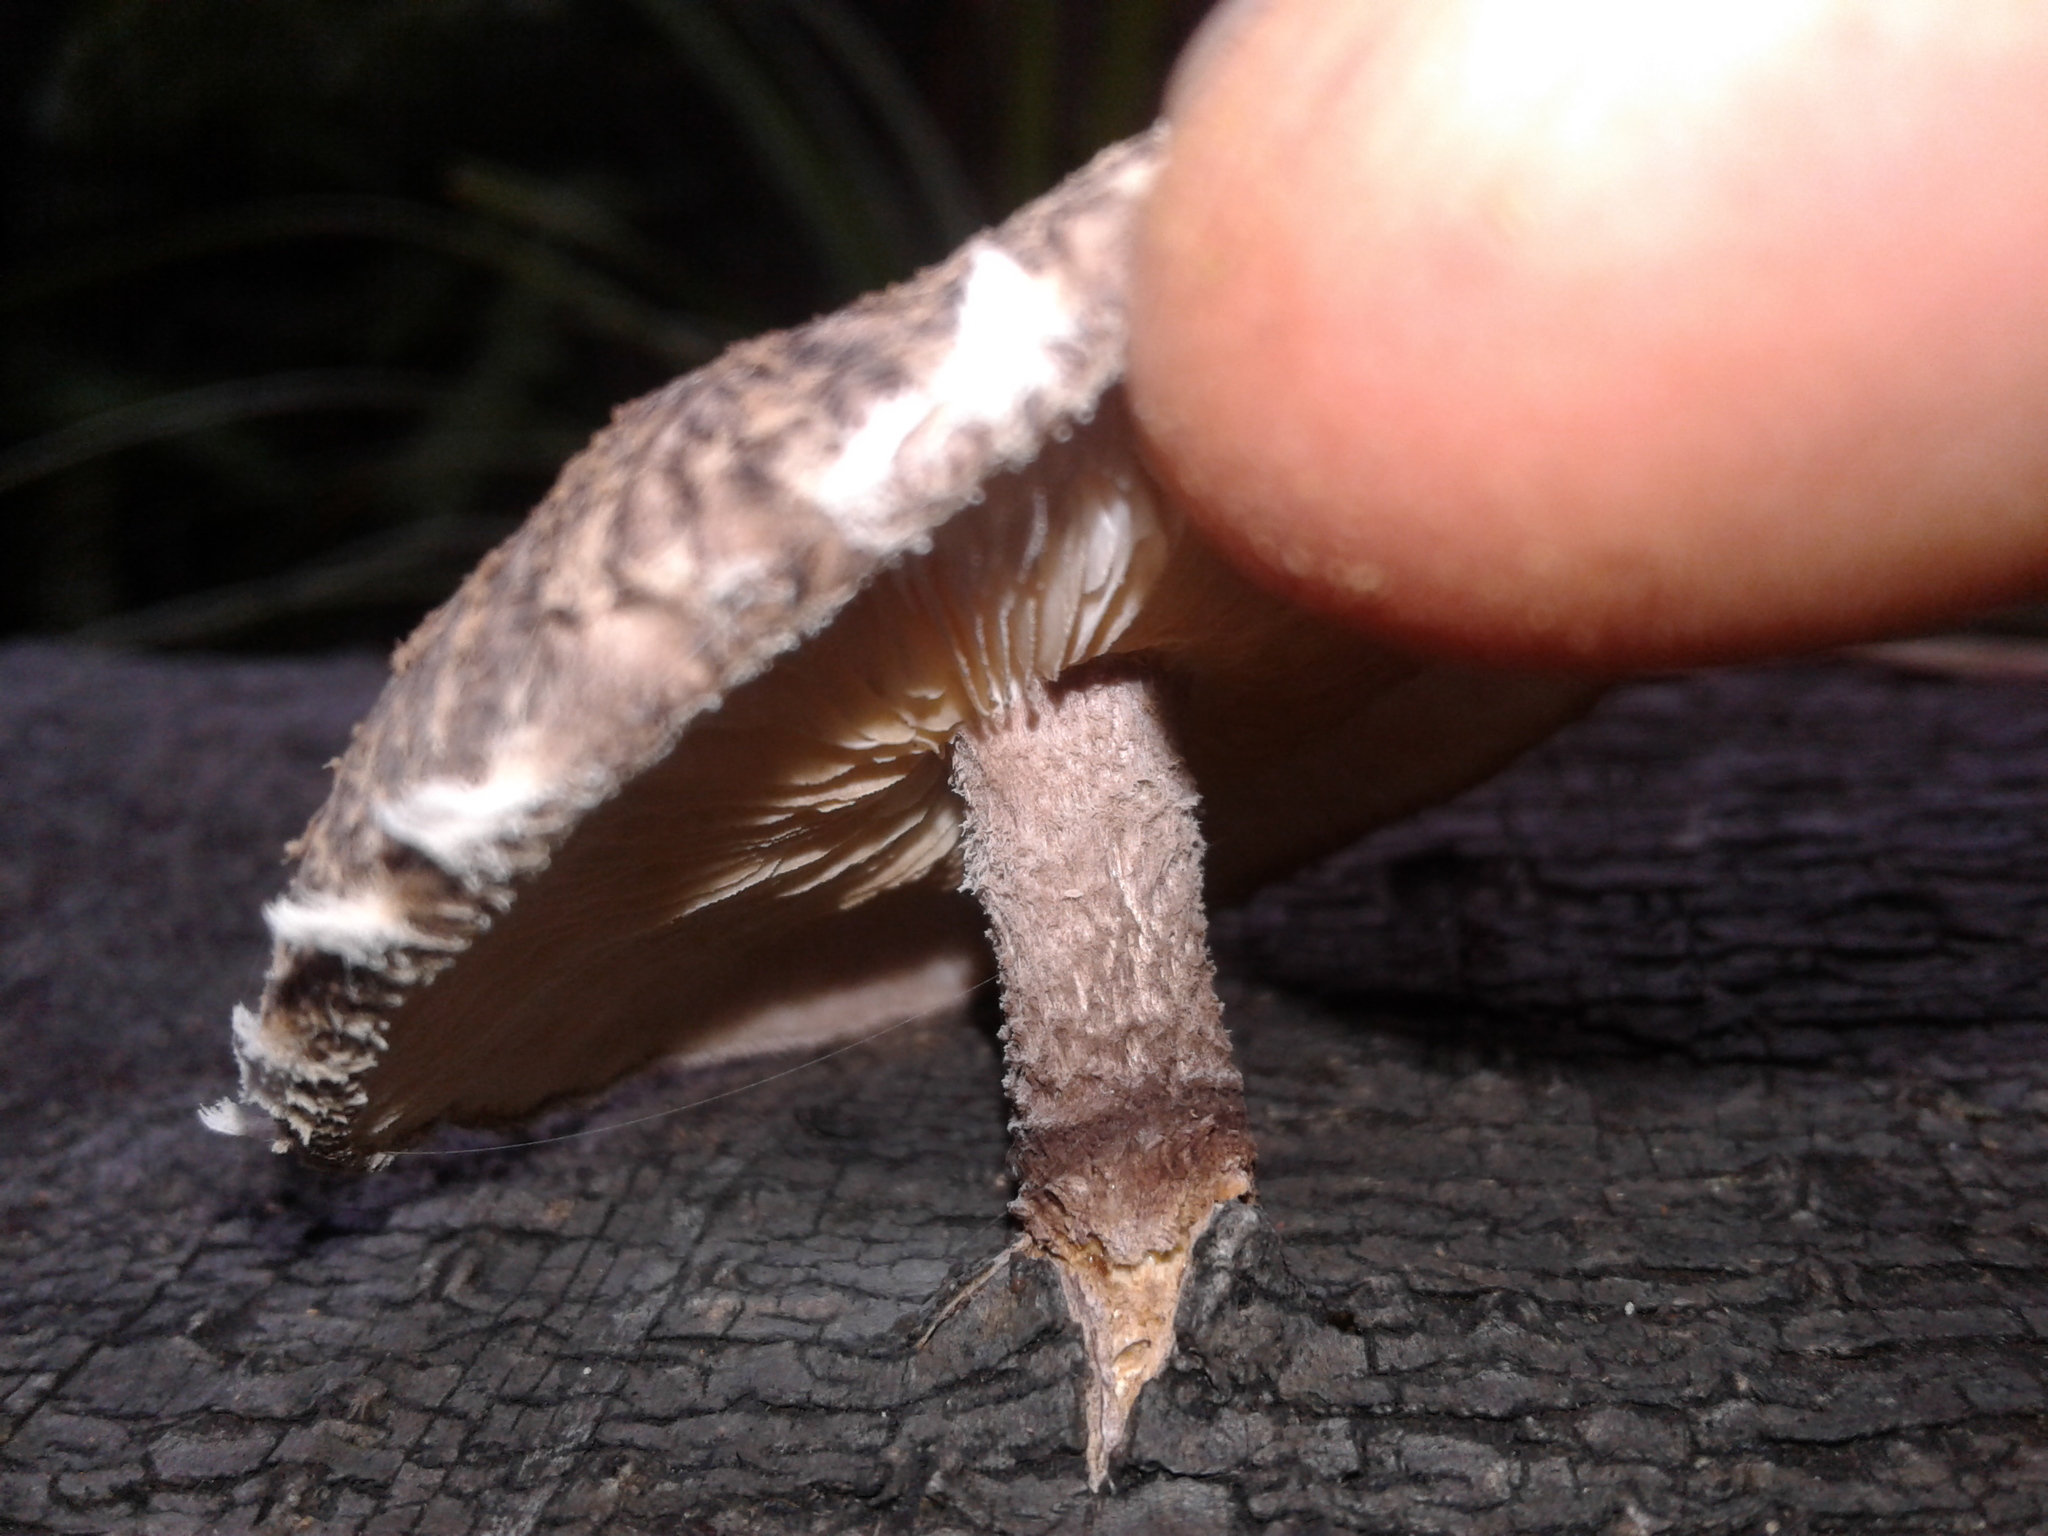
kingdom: Fungi
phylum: Basidiomycota
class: Agaricomycetes
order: Agaricales
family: Omphalotaceae
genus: Lentinula
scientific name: Lentinula novae-zelandiae
